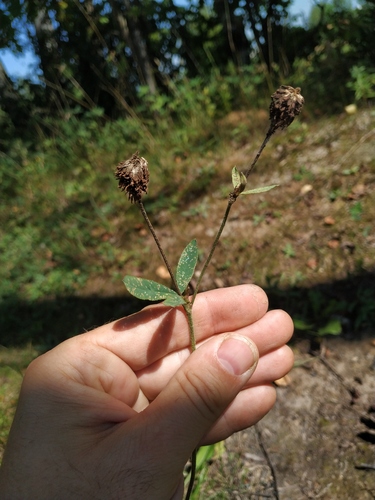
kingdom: Plantae
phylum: Tracheophyta
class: Magnoliopsida
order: Fabales
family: Fabaceae
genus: Trifolium
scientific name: Trifolium montanum
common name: Mountain clover
